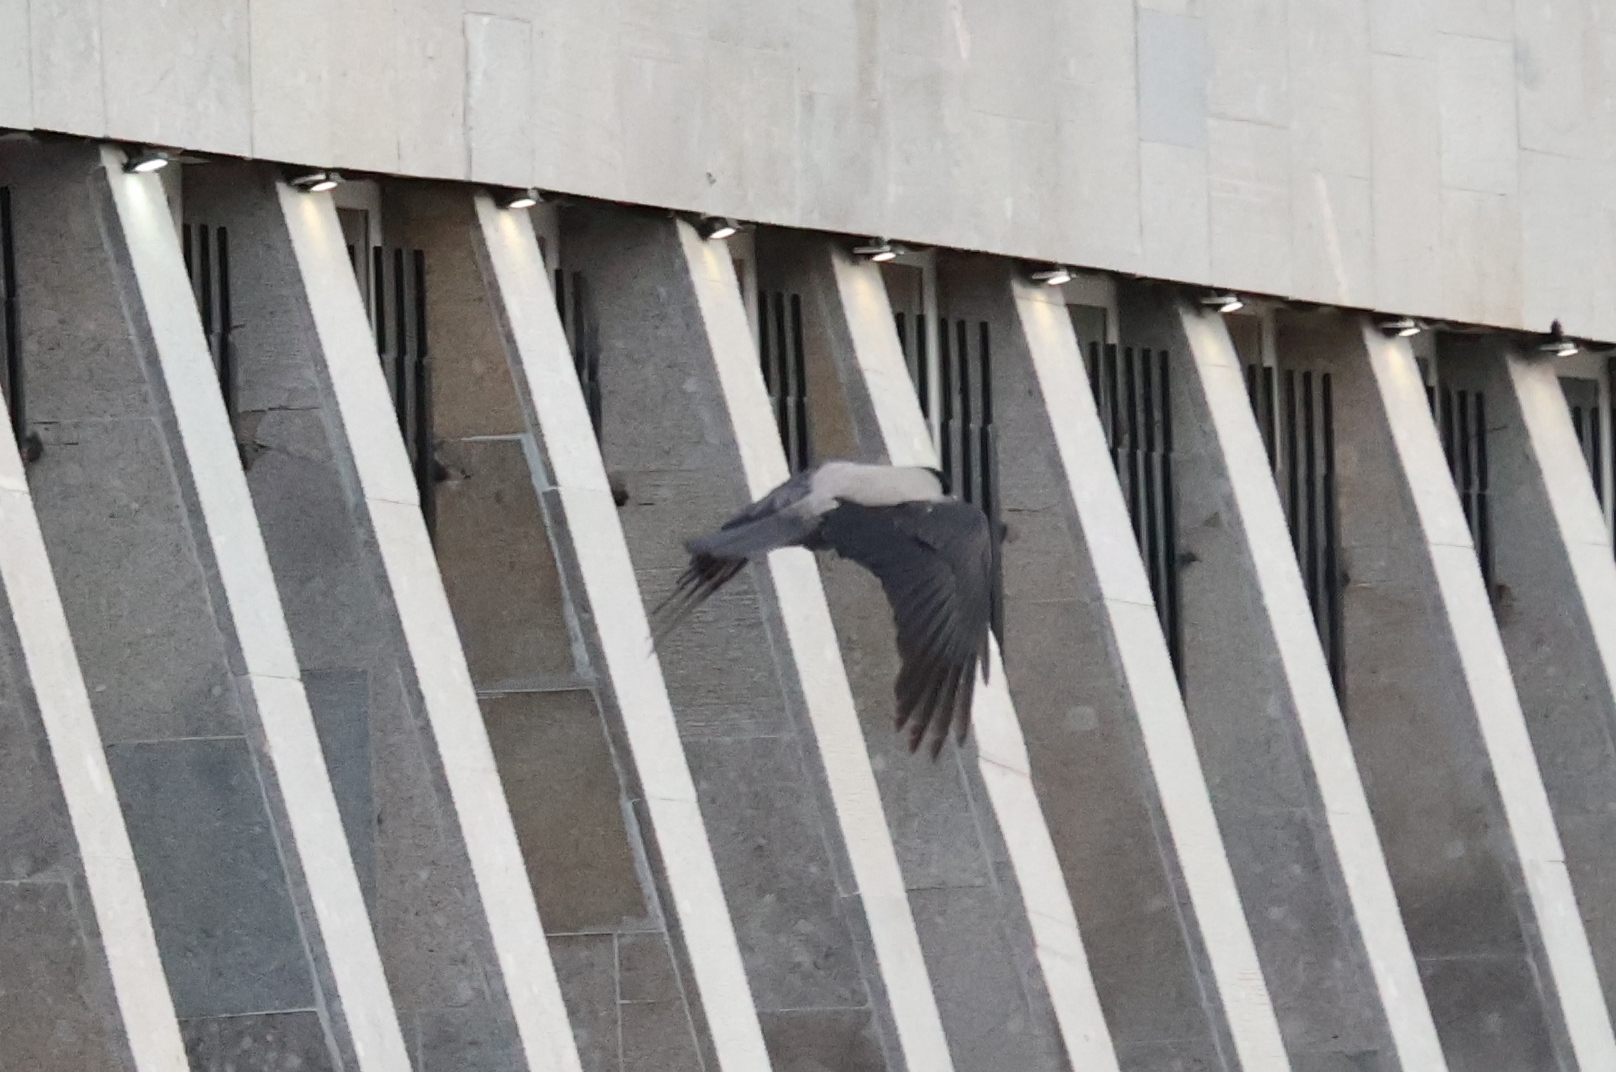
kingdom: Animalia
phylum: Chordata
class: Aves
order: Passeriformes
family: Corvidae
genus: Corvus
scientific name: Corvus cornix
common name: Hooded crow
